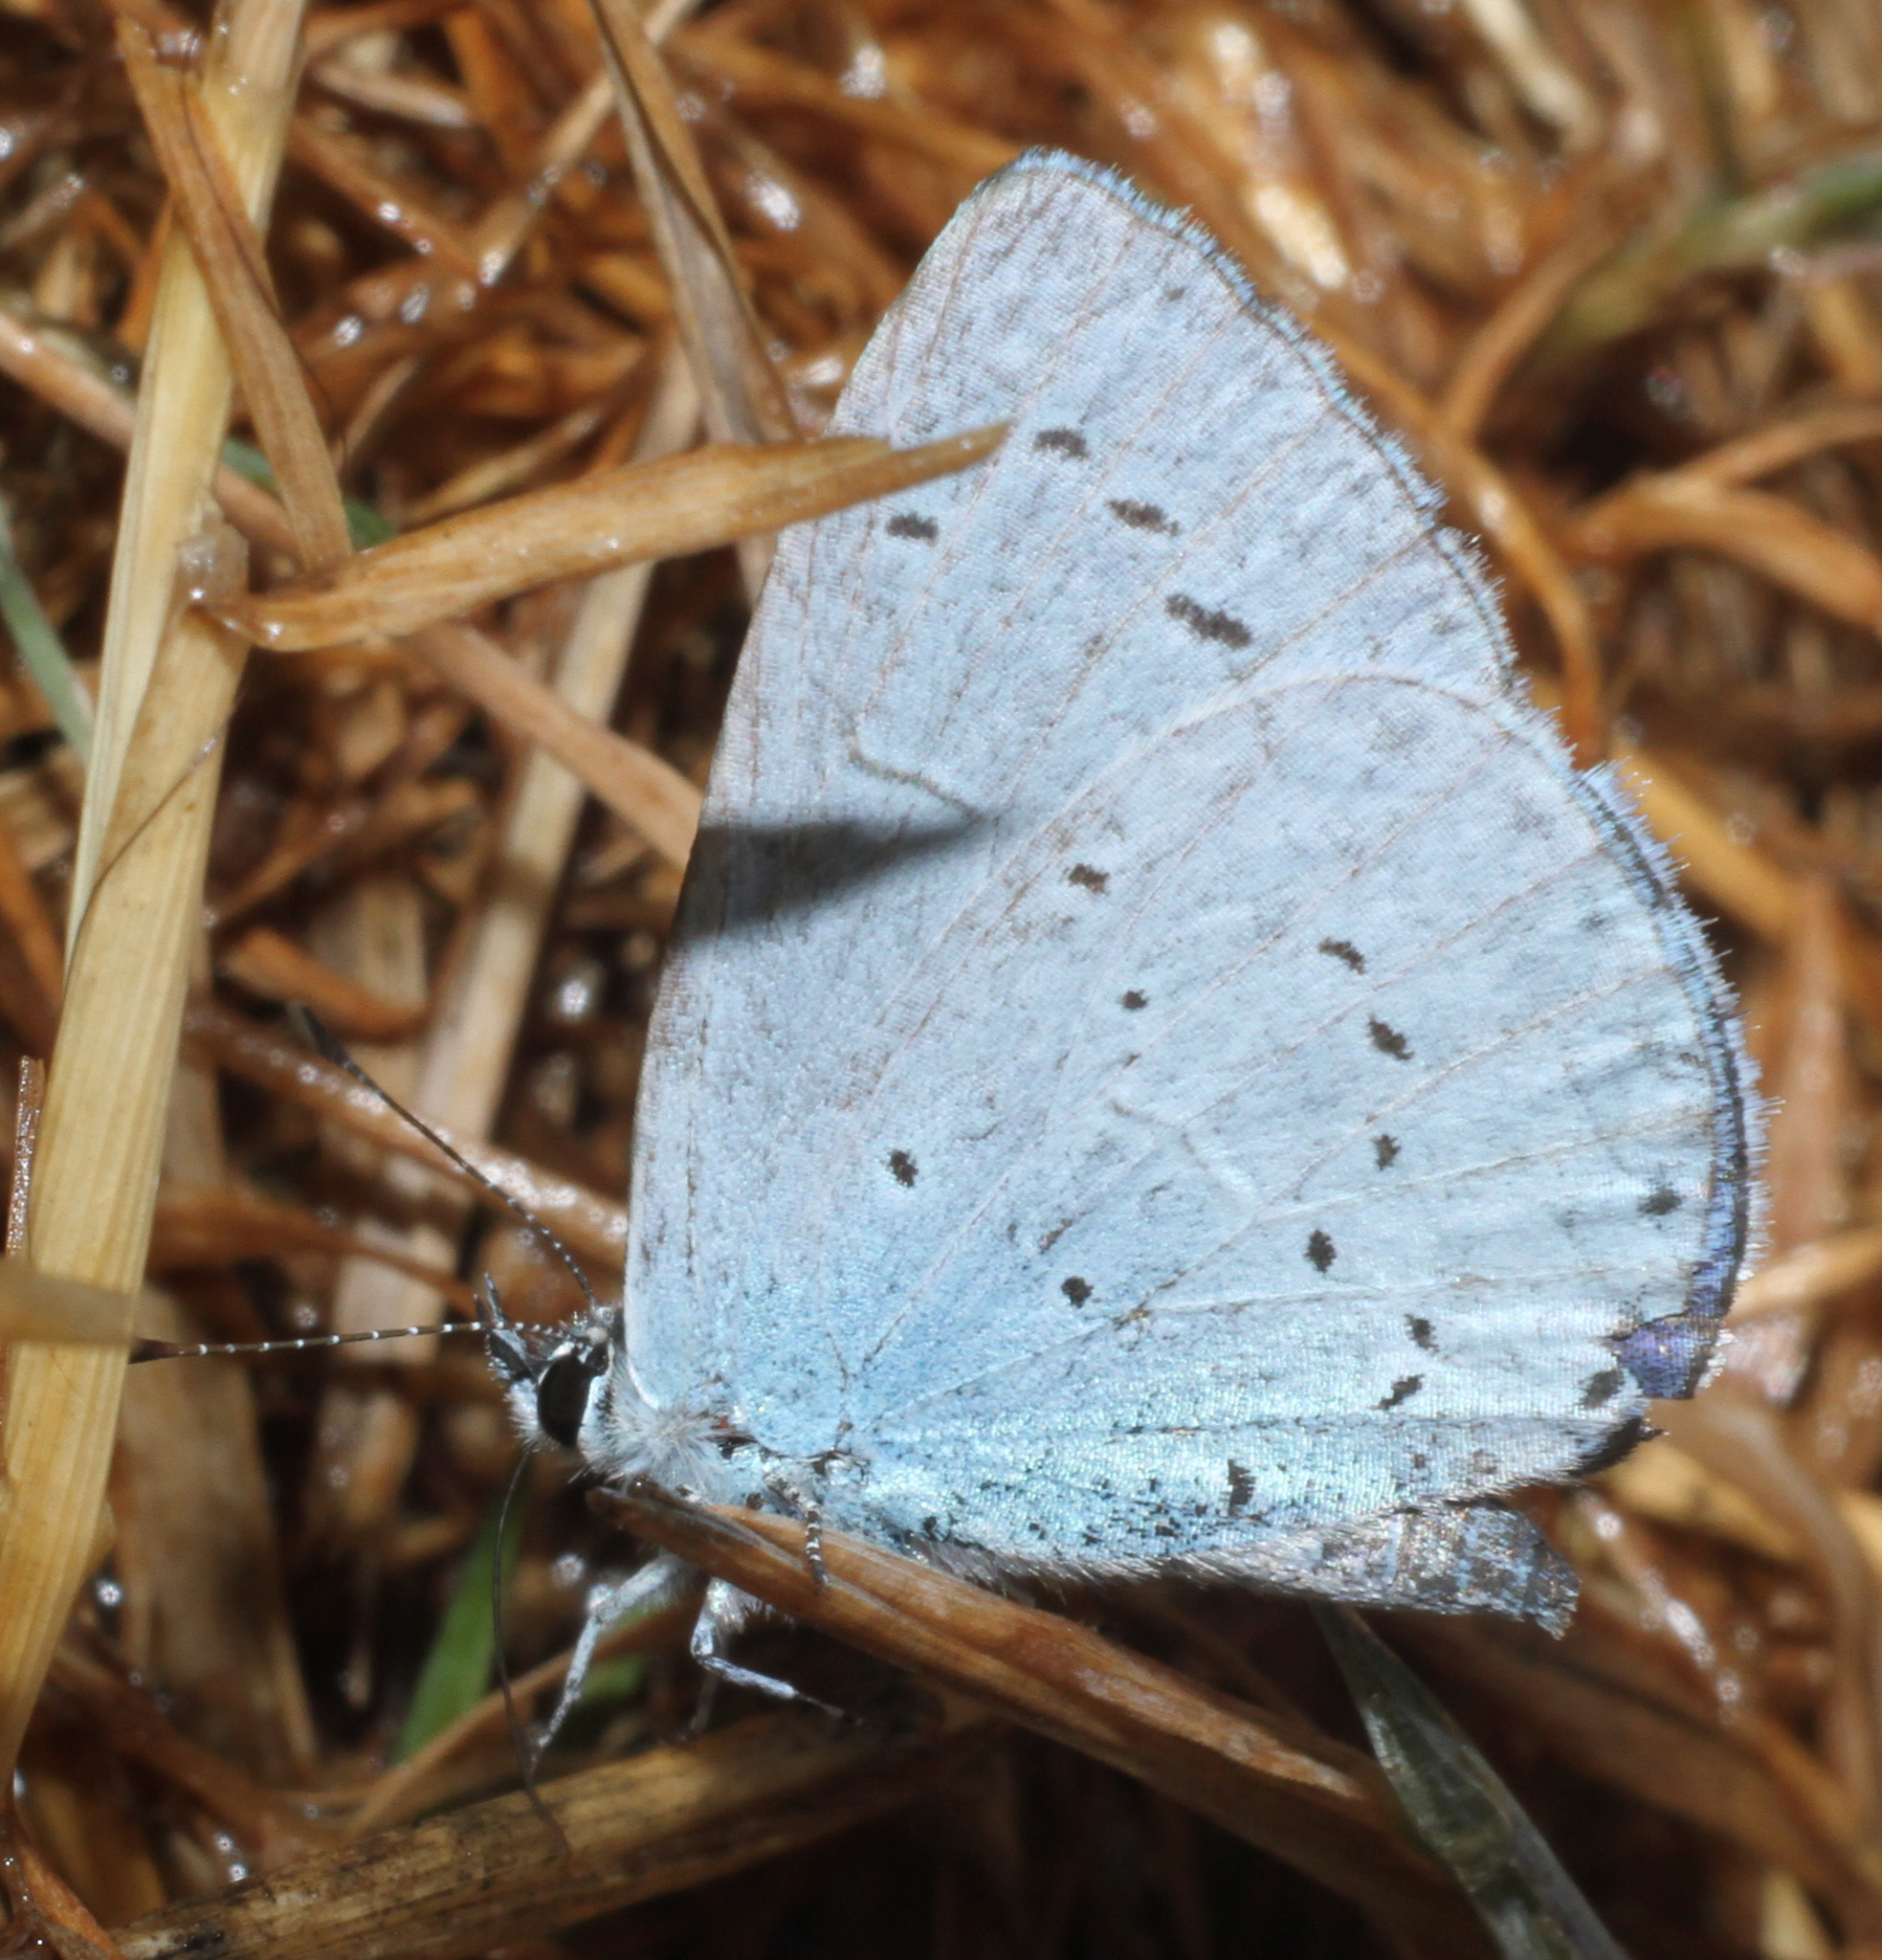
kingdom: Animalia
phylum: Arthropoda
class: Insecta
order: Lepidoptera
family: Lycaenidae
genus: Celastrina
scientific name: Celastrina argiolus
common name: Holly blue
